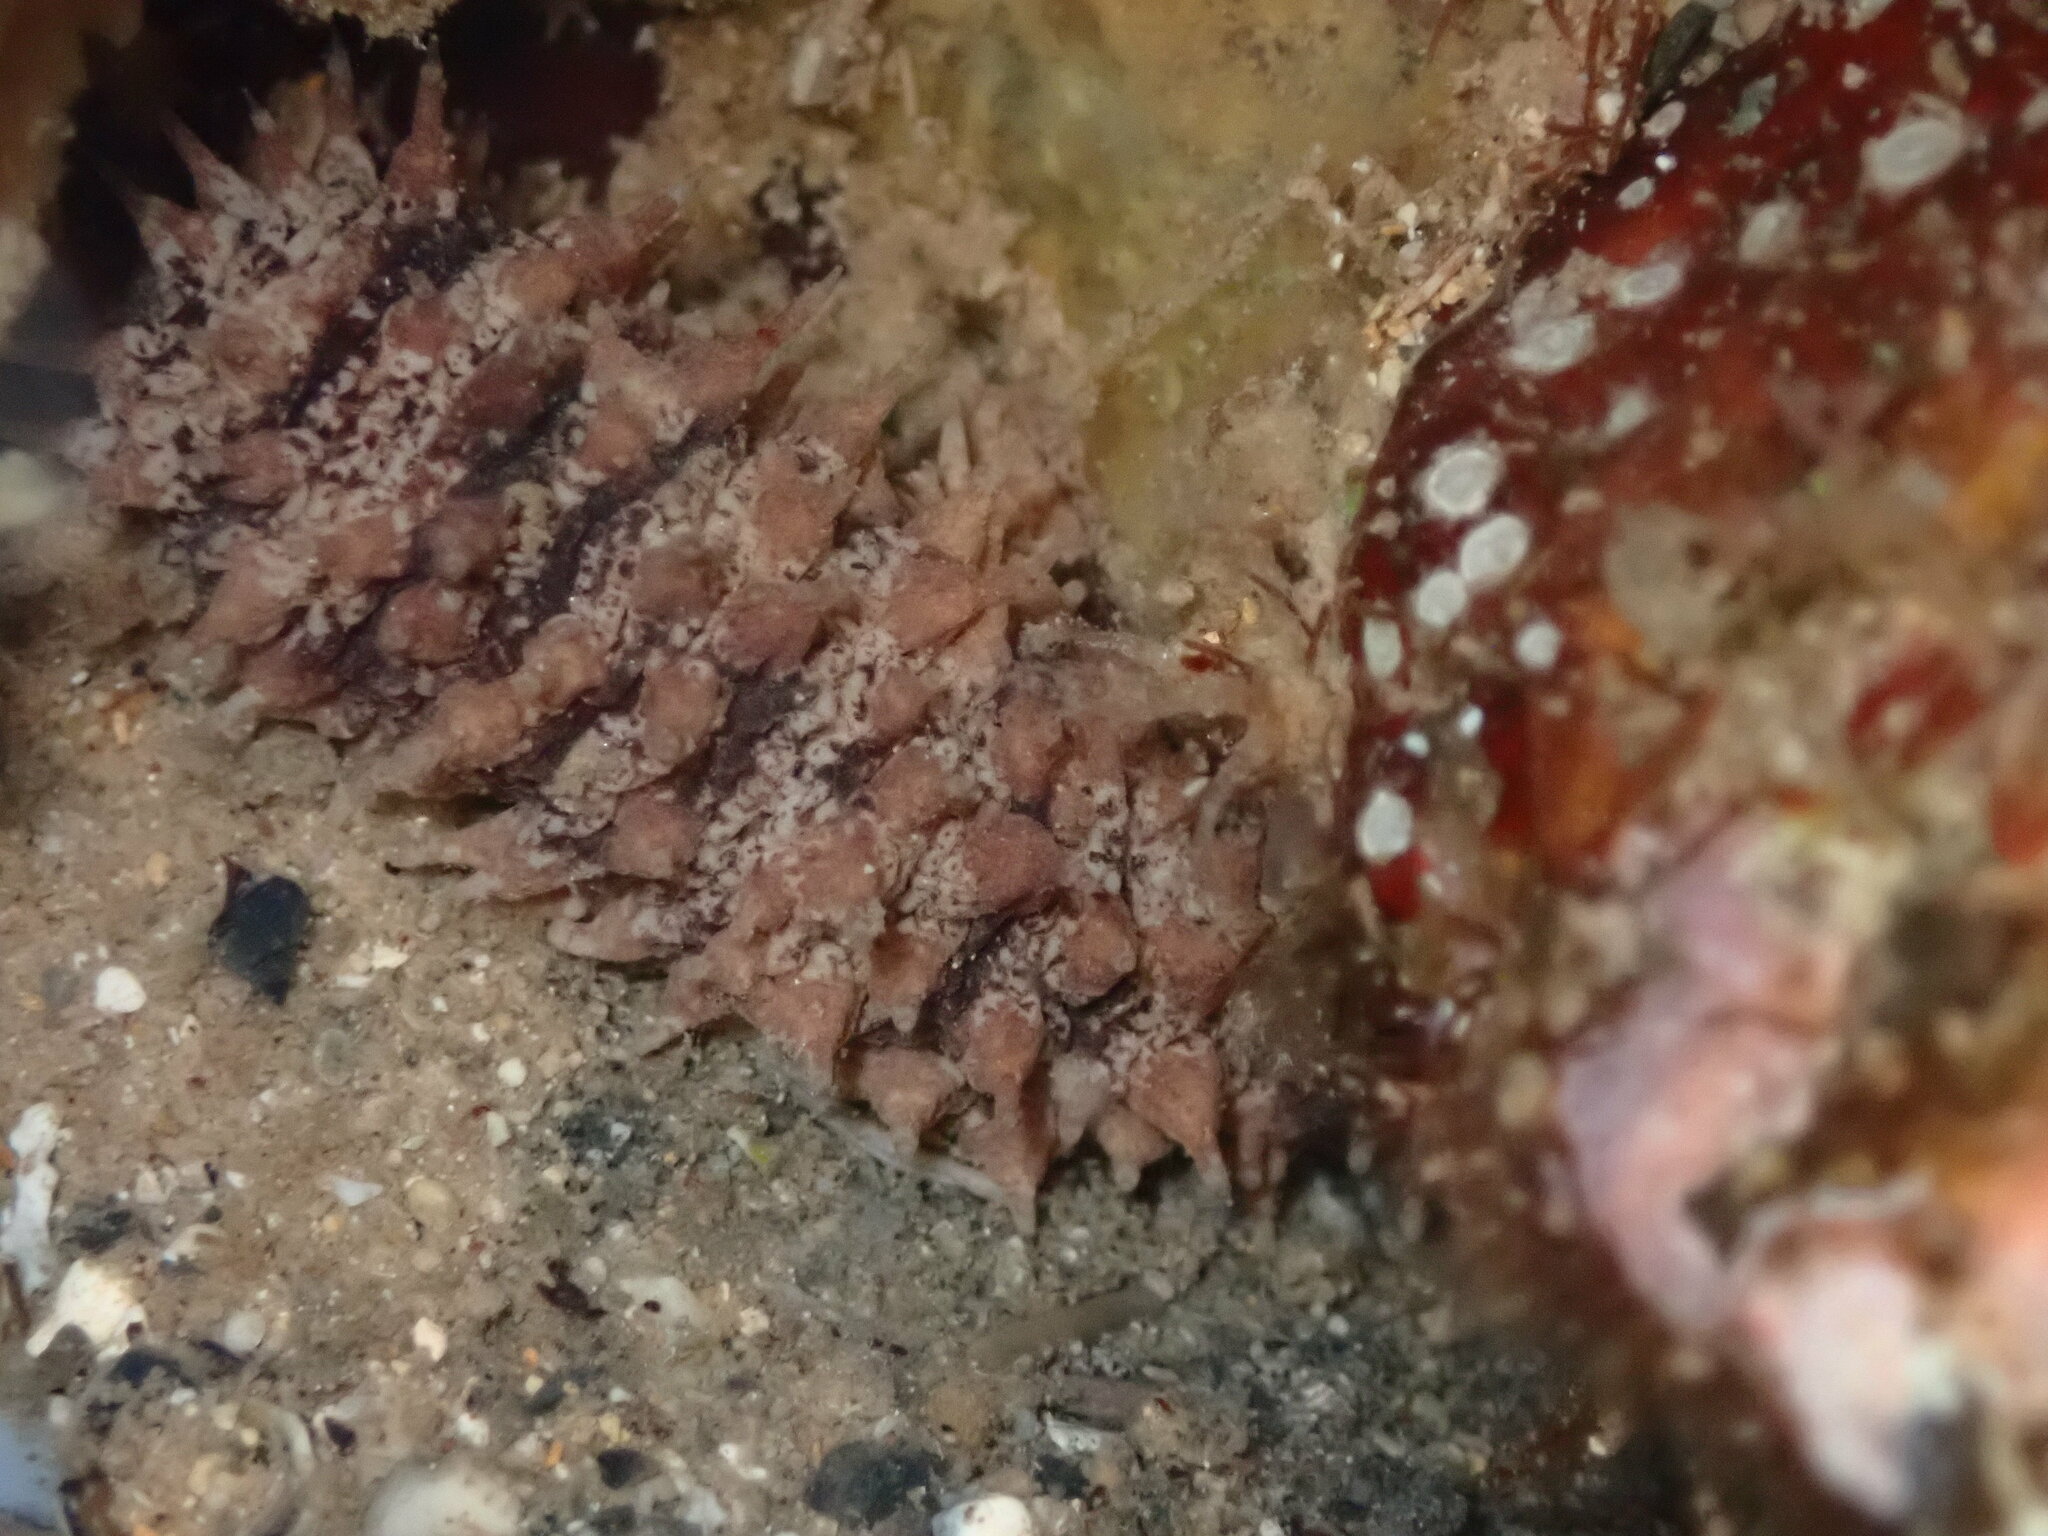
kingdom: Animalia
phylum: Echinodermata
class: Holothuroidea
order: Holothuriida
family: Holothuriidae
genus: Holothuria
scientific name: Holothuria impatiens
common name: Bottleneck sea cucumber
